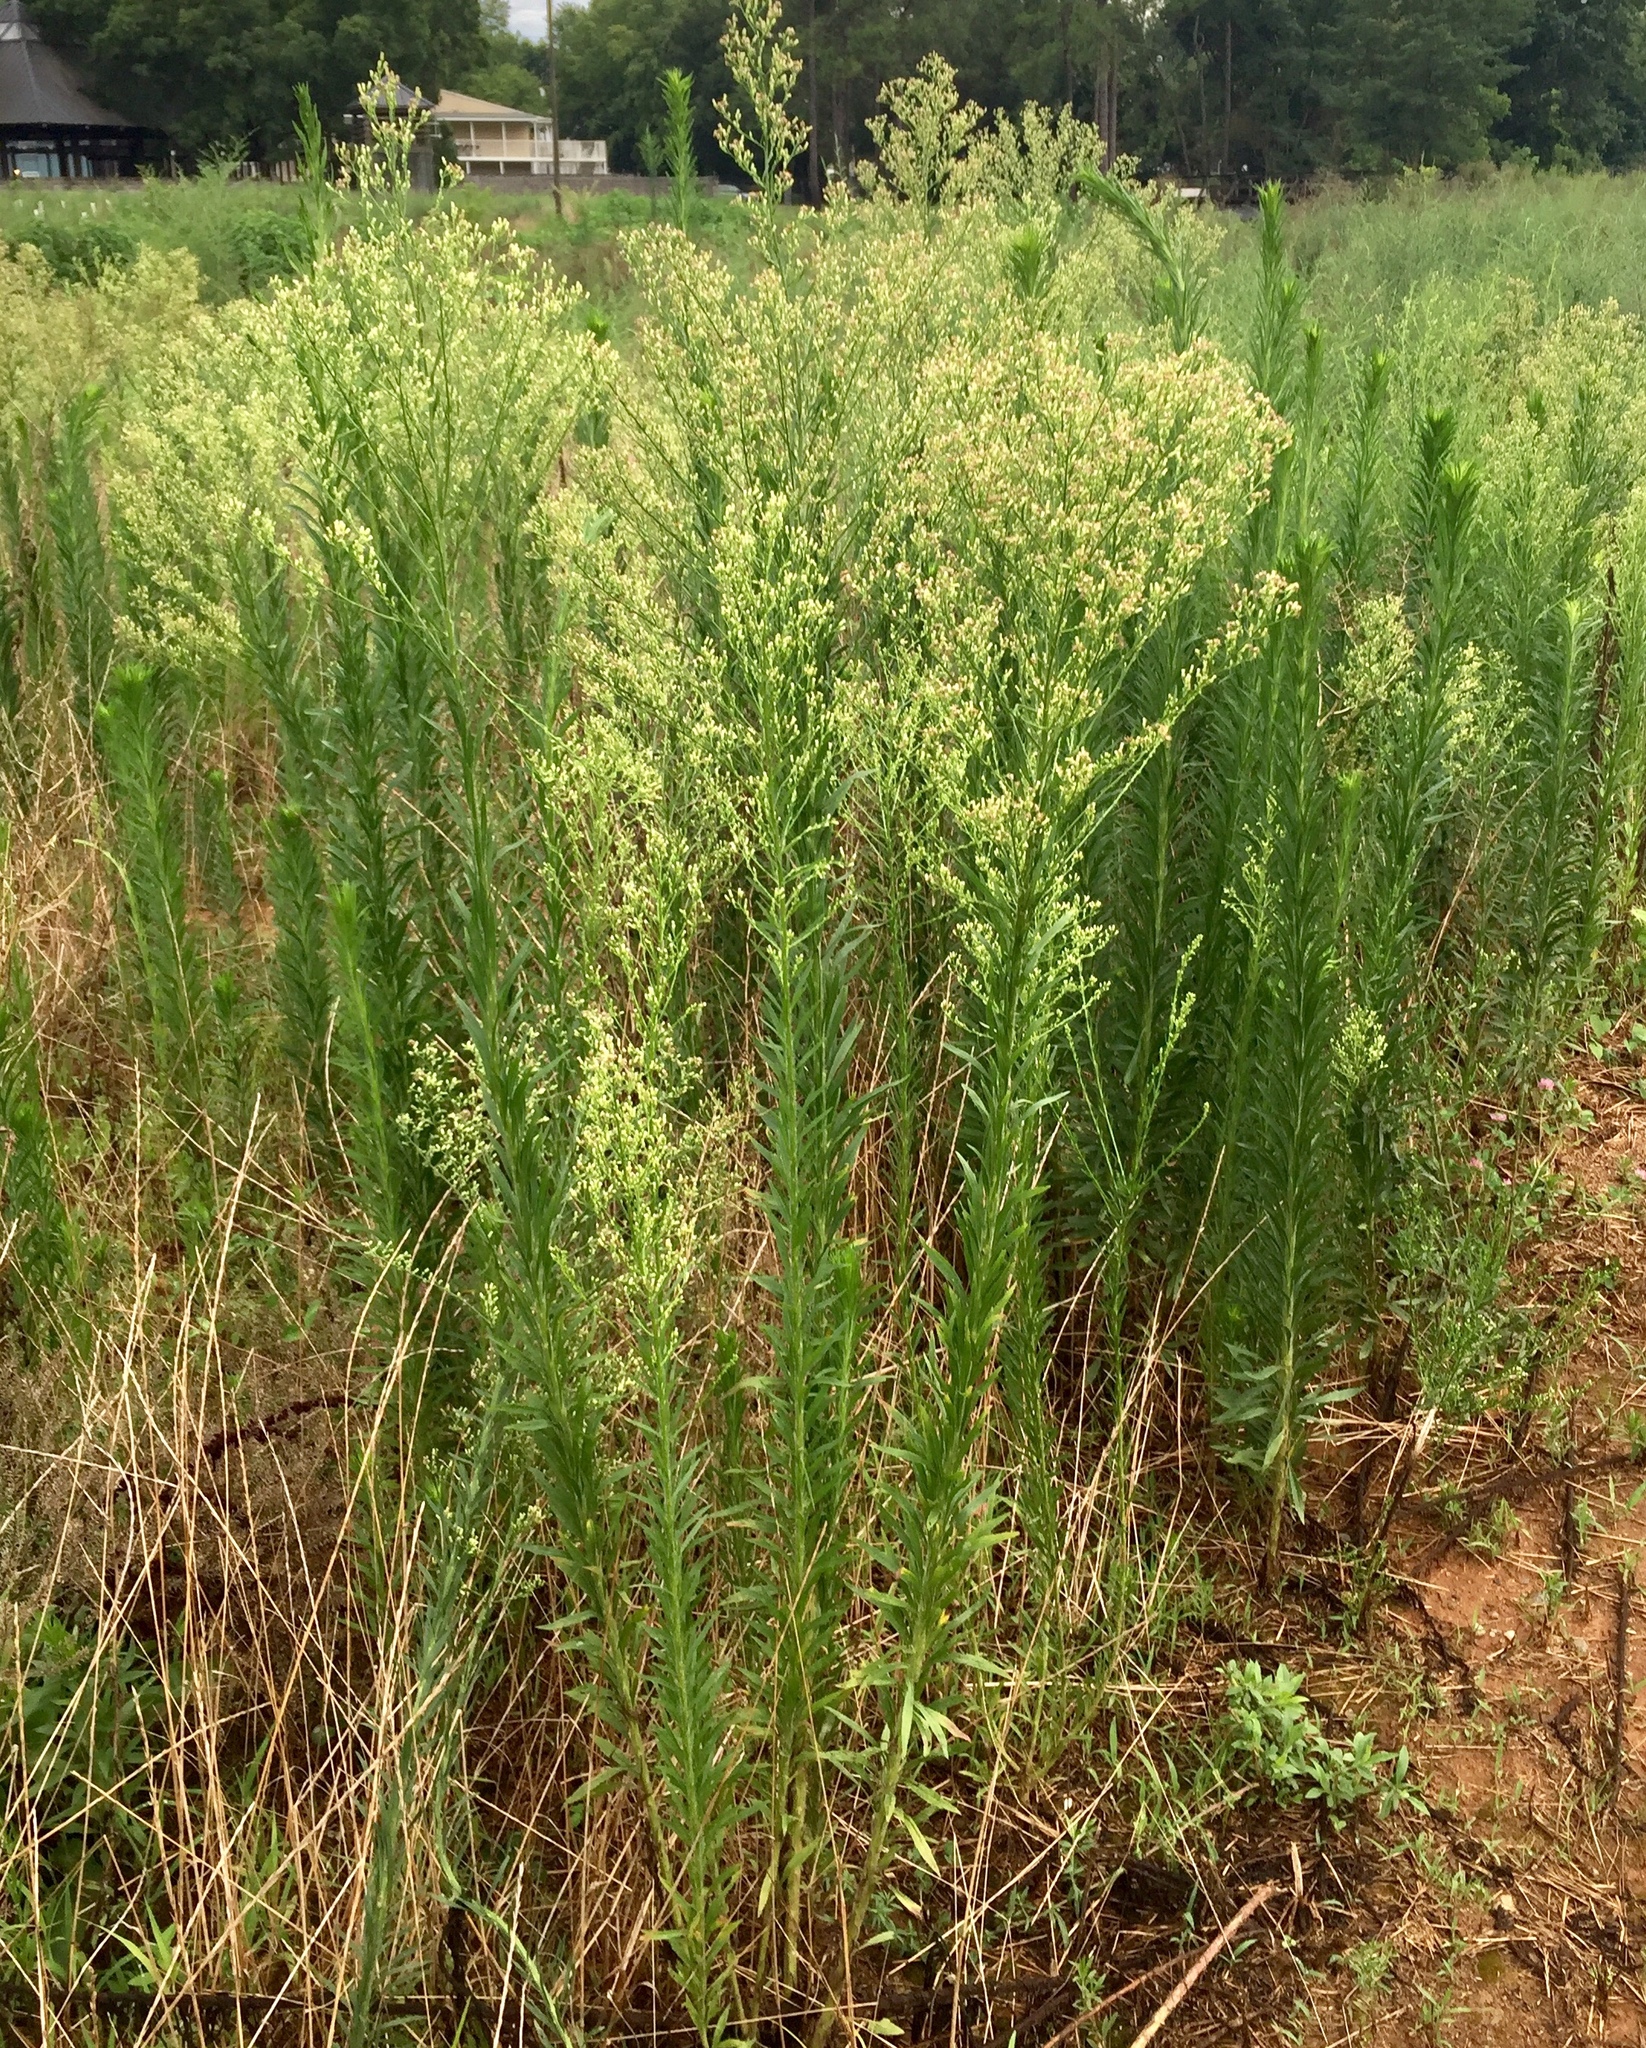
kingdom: Plantae
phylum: Tracheophyta
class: Magnoliopsida
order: Asterales
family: Asteraceae
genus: Erigeron
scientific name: Erigeron canadensis
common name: Canadian fleabane
